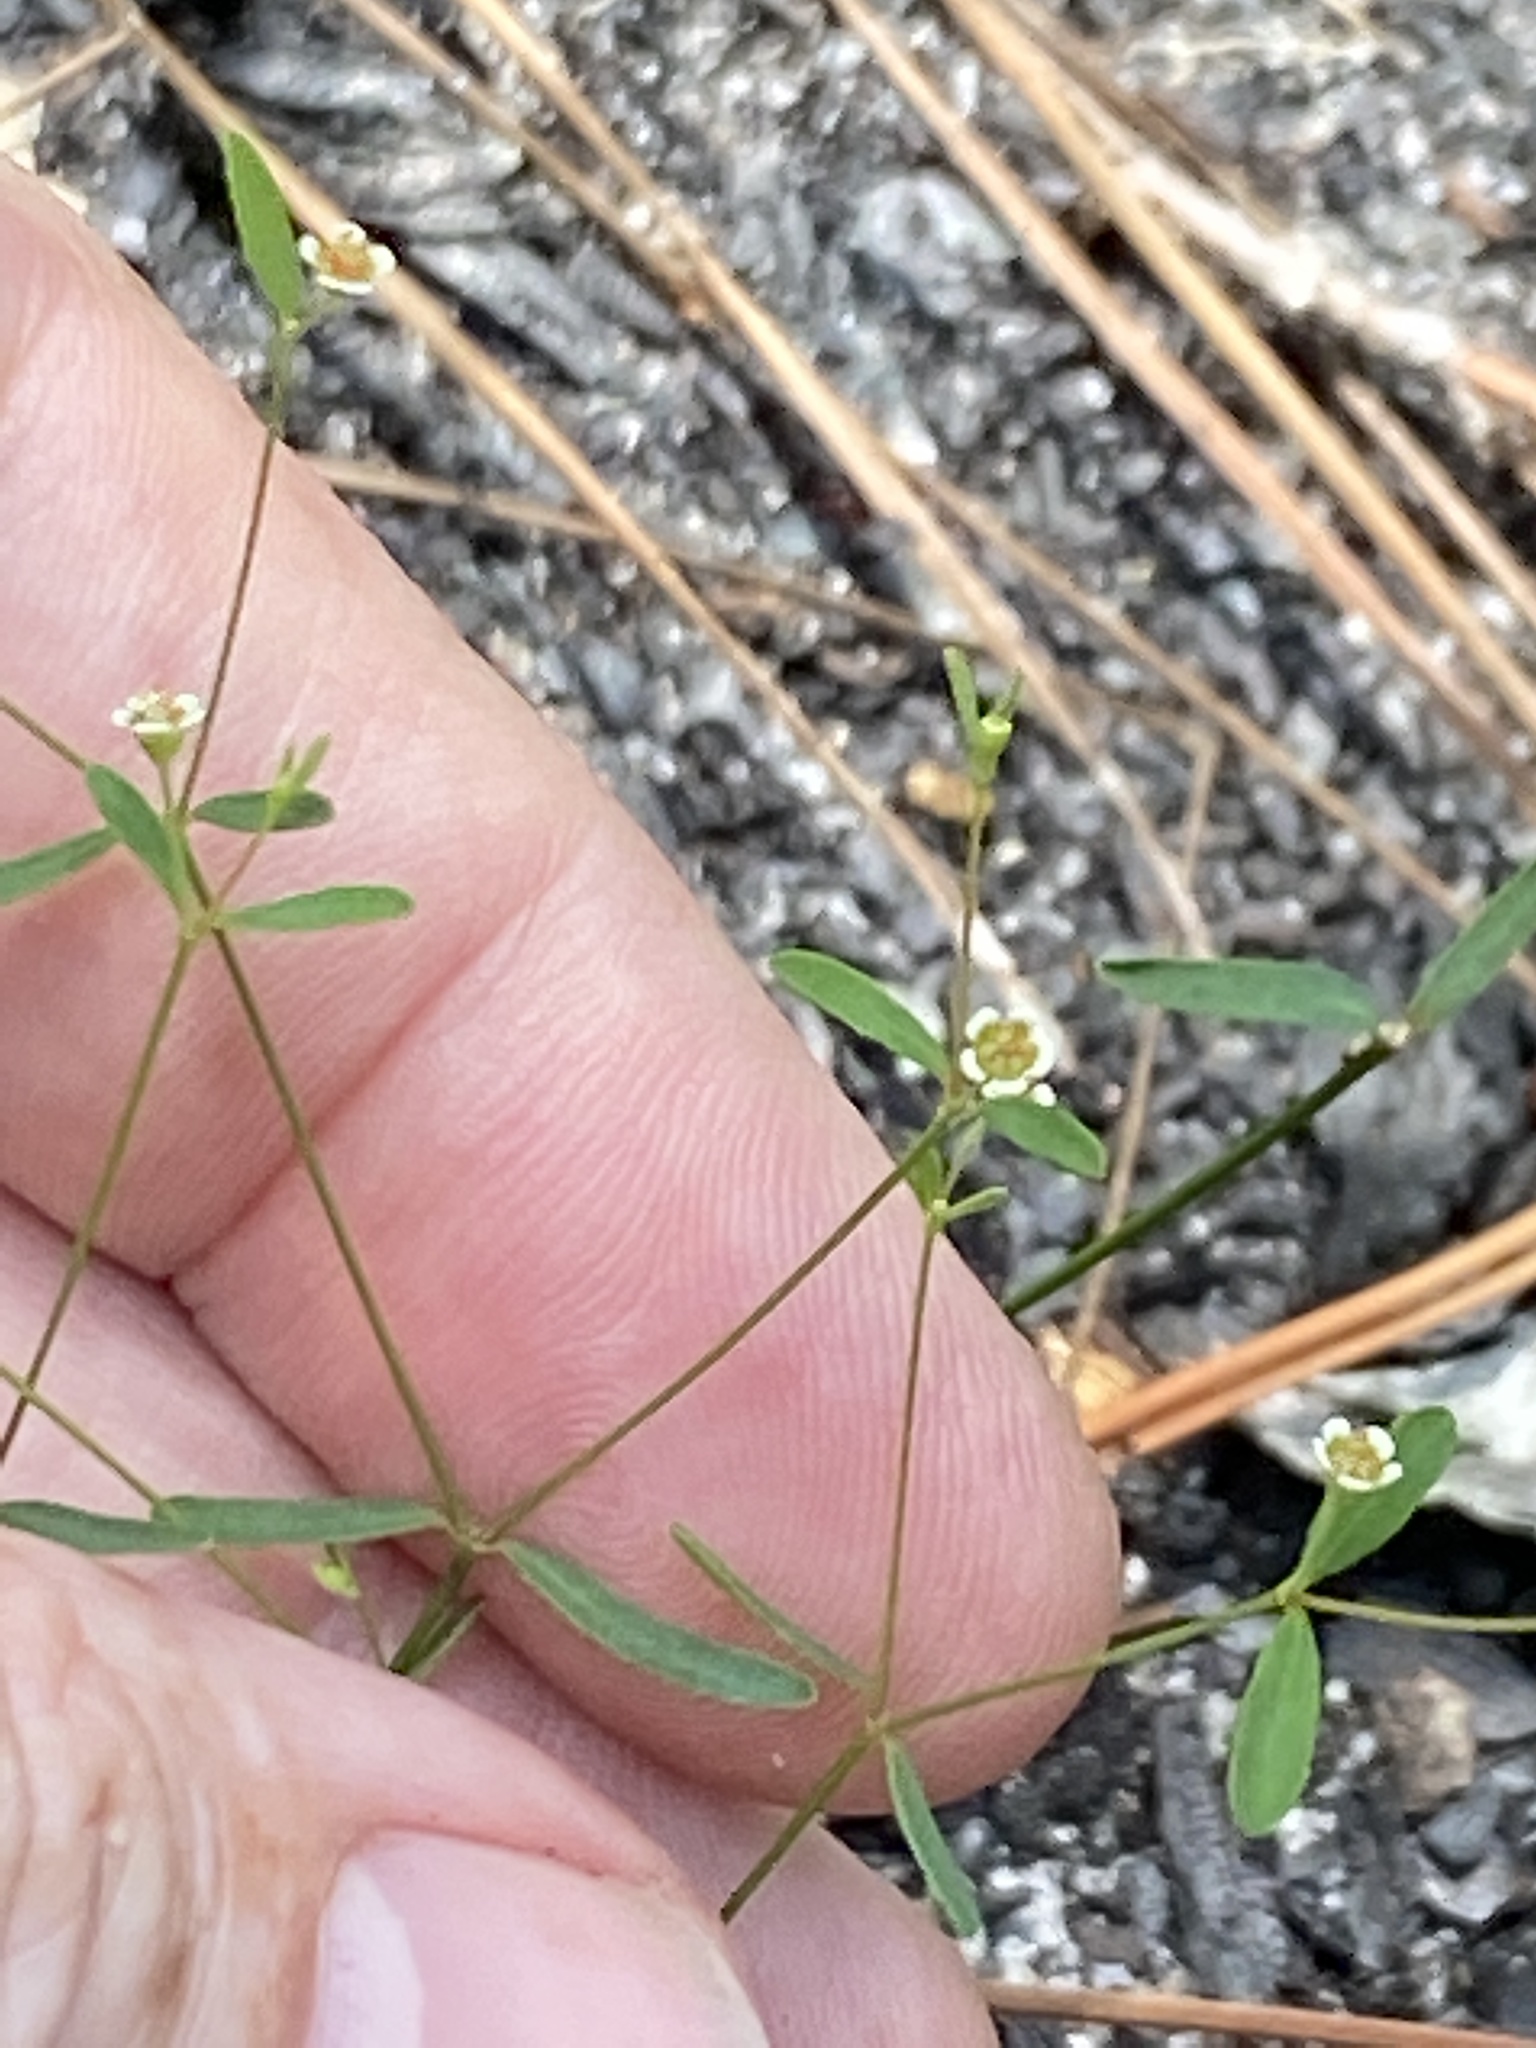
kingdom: Plantae
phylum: Tracheophyta
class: Magnoliopsida
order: Malpighiales
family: Euphorbiaceae
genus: Euphorbia
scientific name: Euphorbia curtisii
